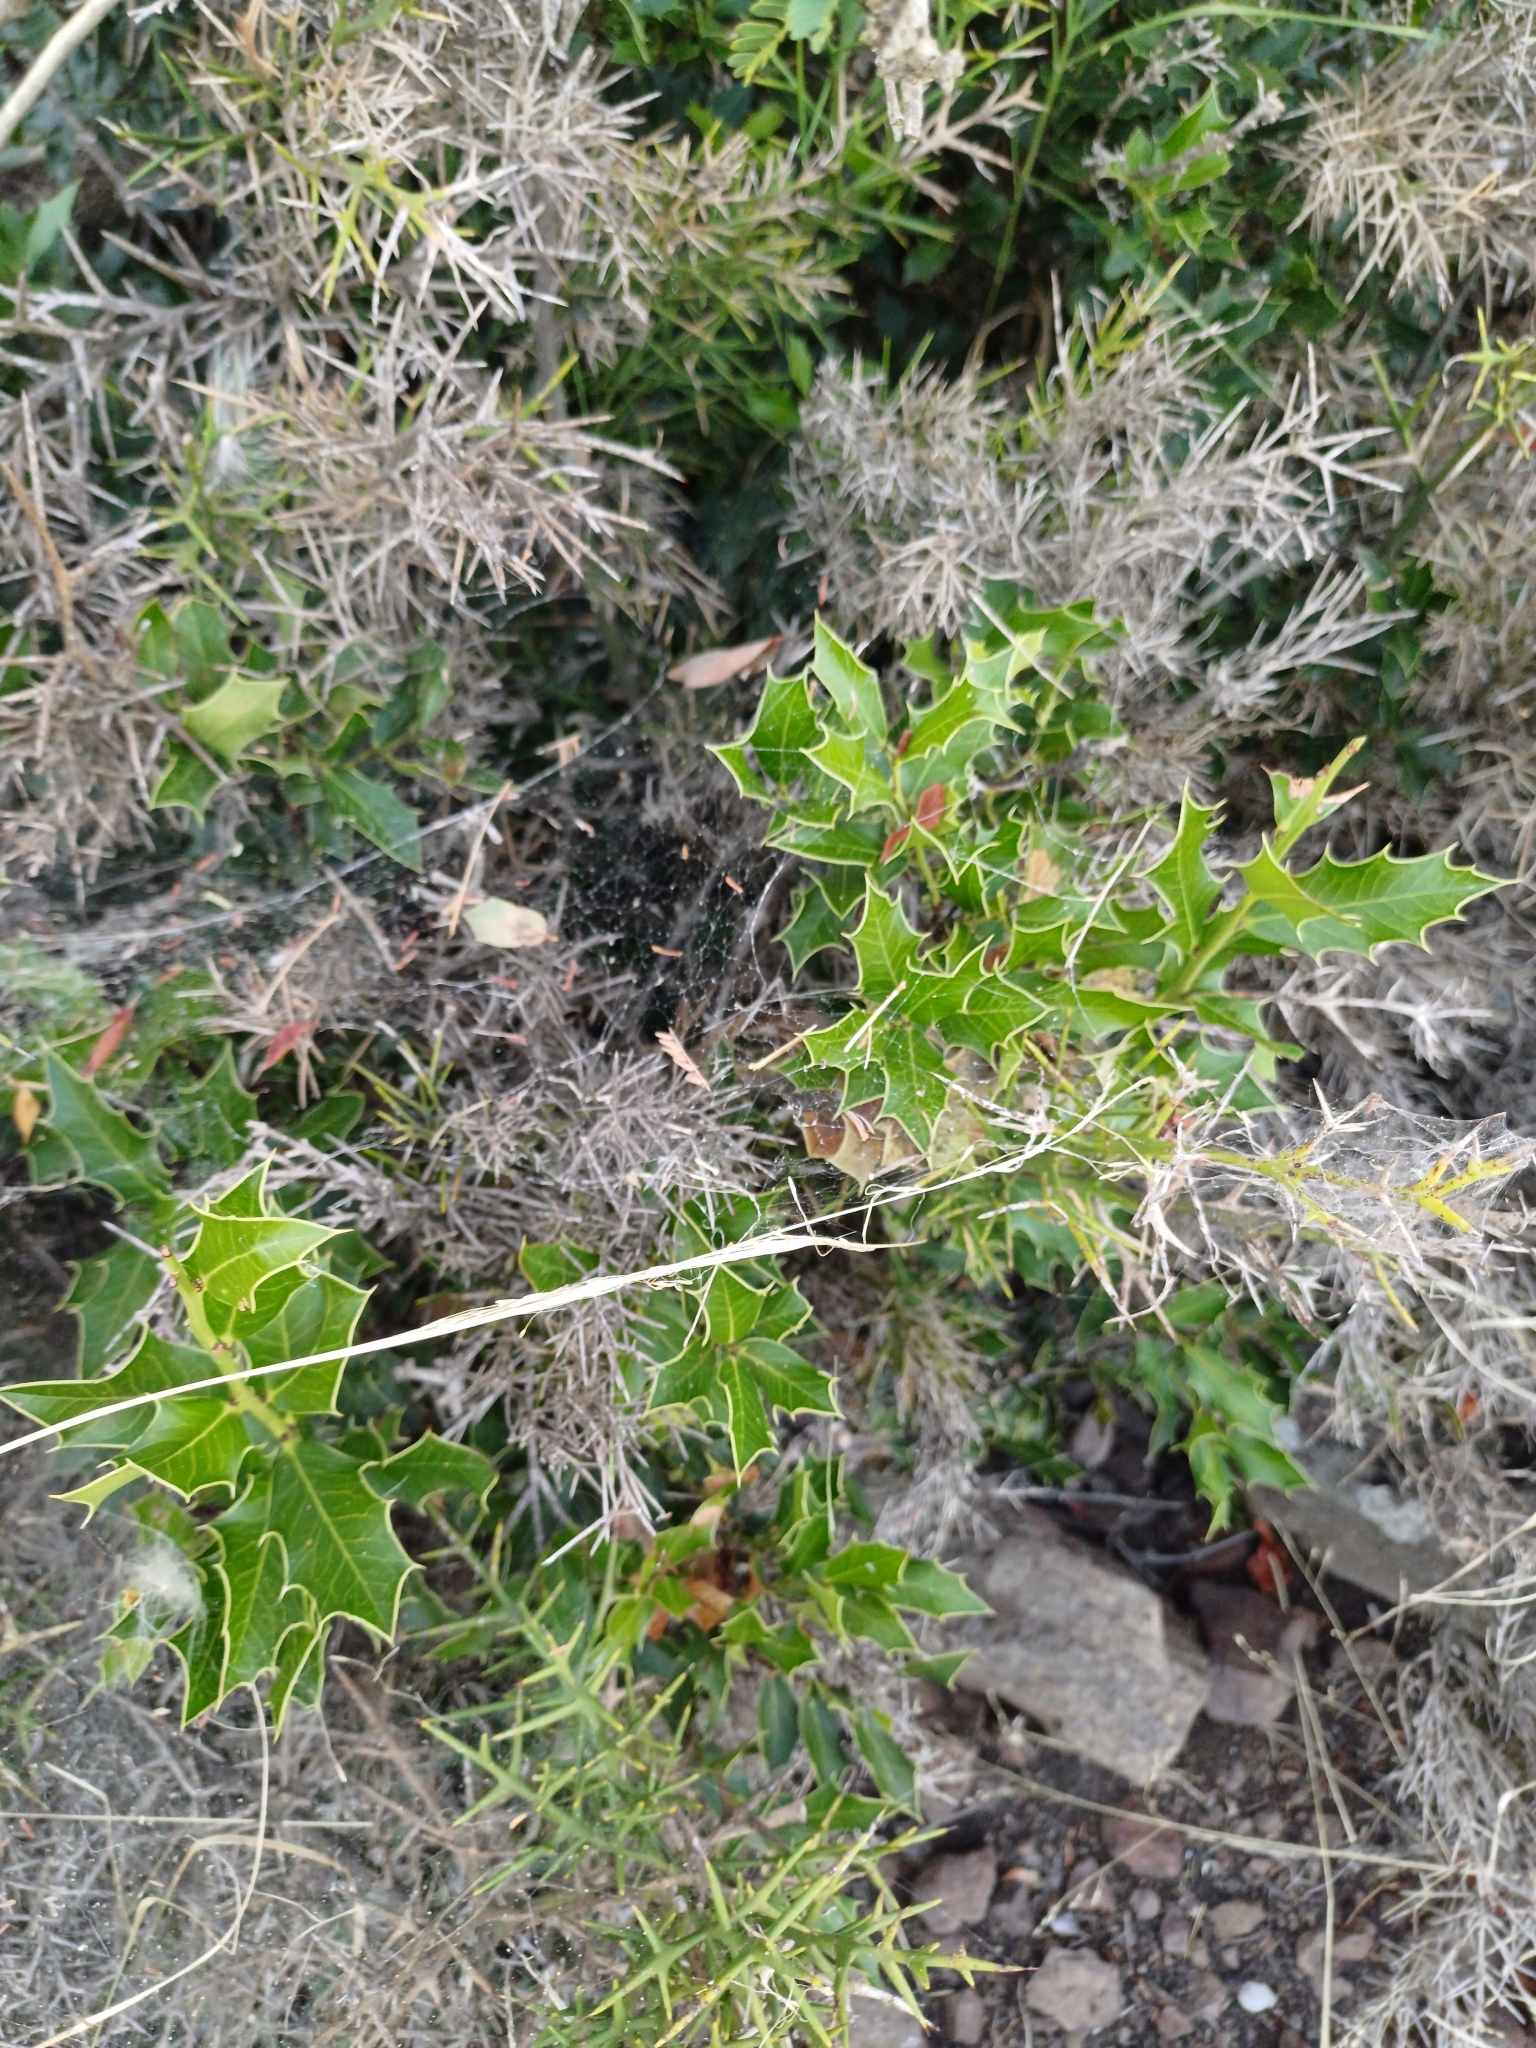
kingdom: Plantae
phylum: Tracheophyta
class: Magnoliopsida
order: Celastrales
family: Celastraceae
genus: Monteverdia
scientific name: Monteverdia
